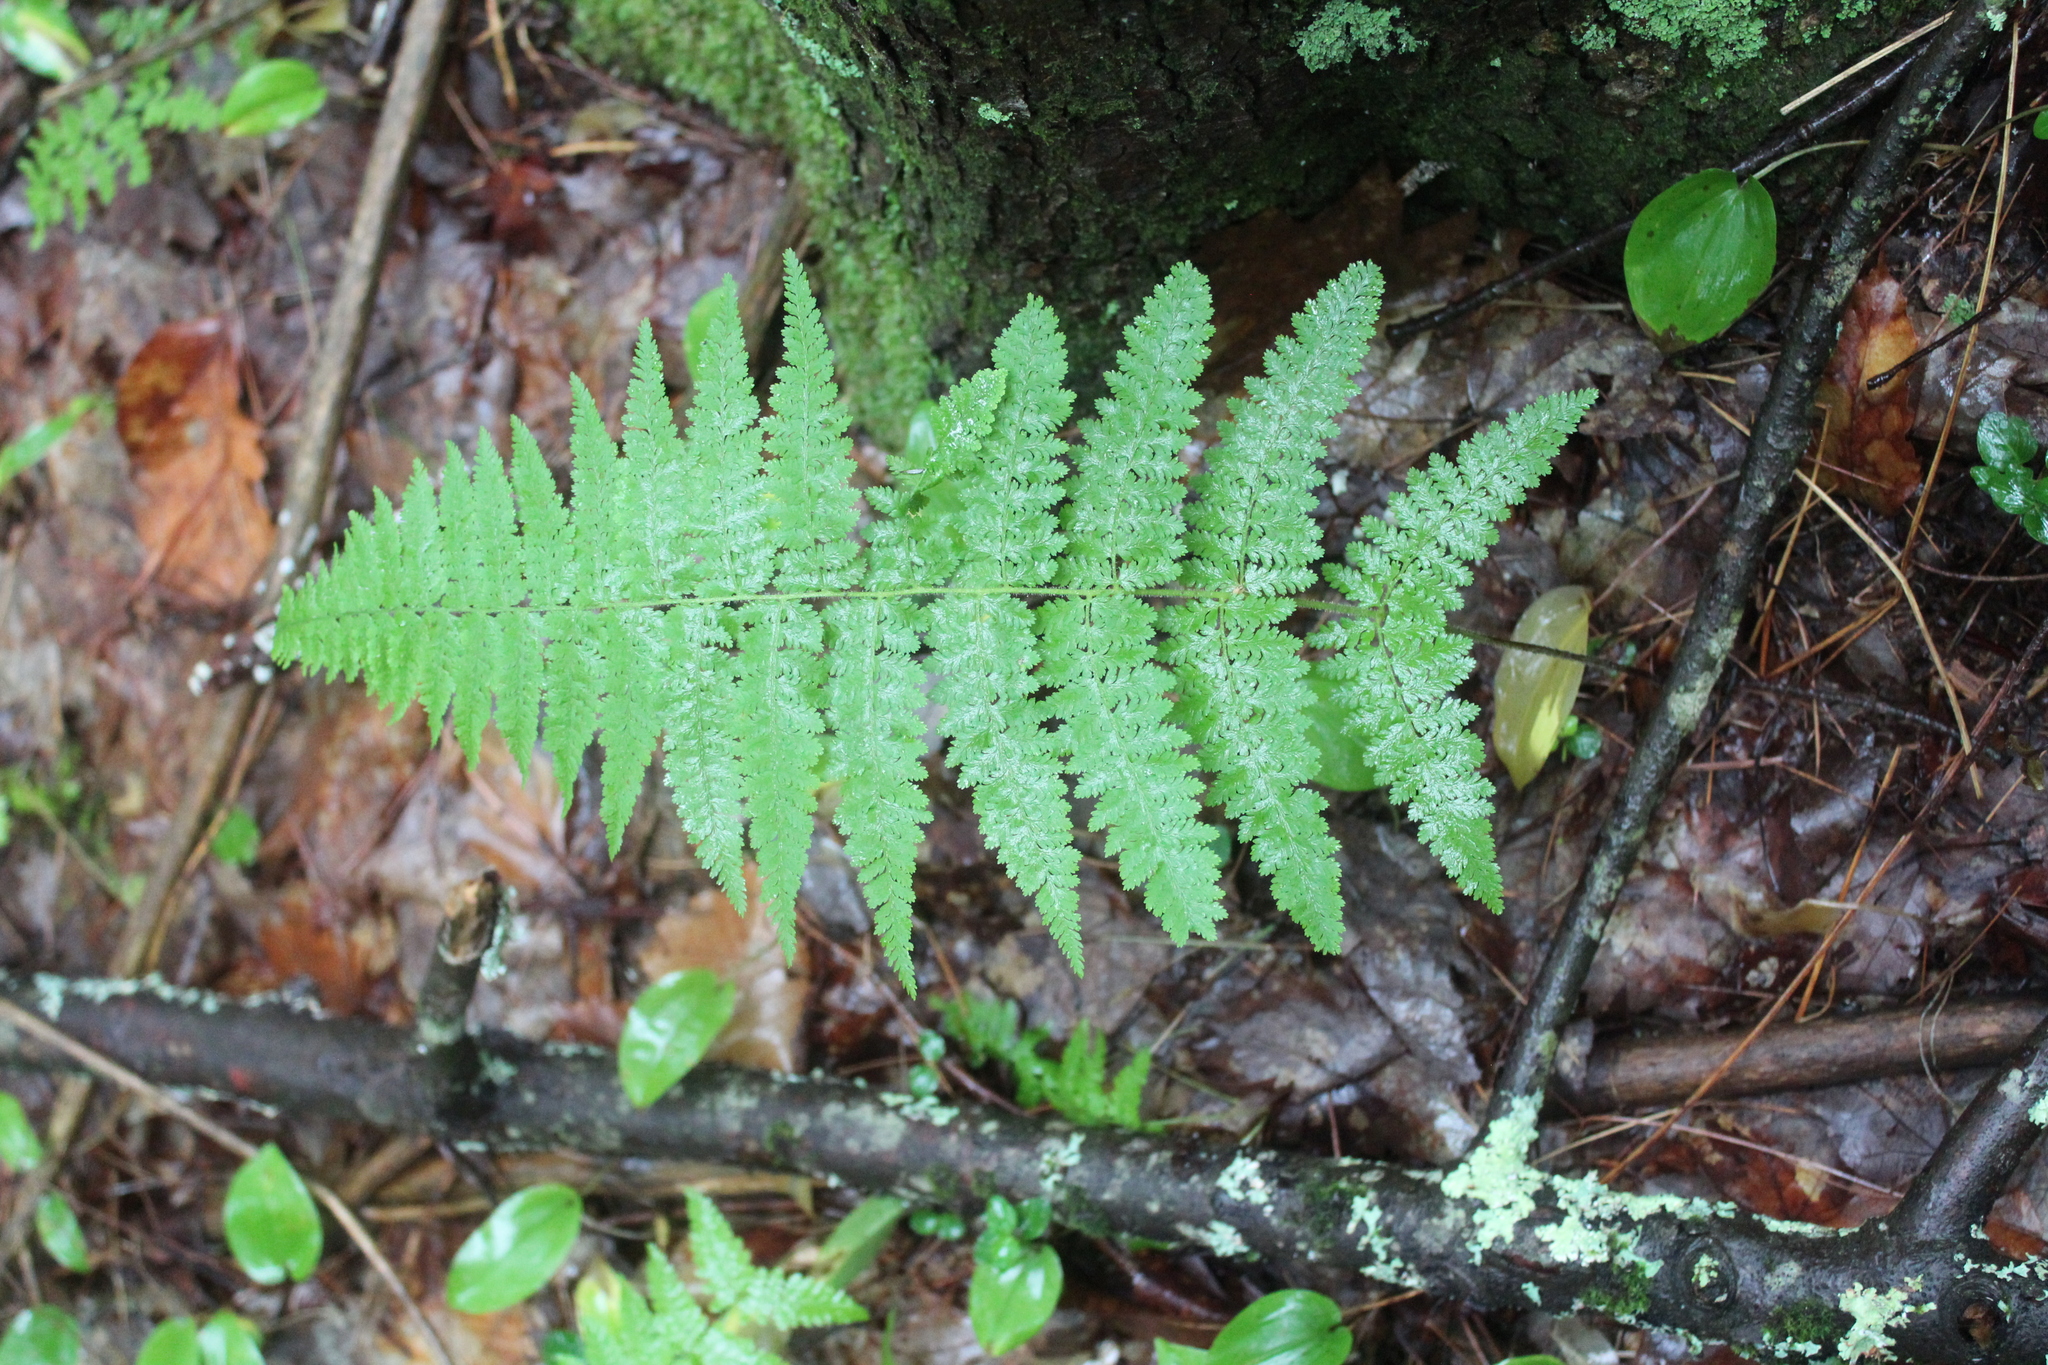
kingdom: Plantae
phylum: Tracheophyta
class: Polypodiopsida
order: Polypodiales
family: Dennstaedtiaceae
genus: Sitobolium
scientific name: Sitobolium punctilobum
